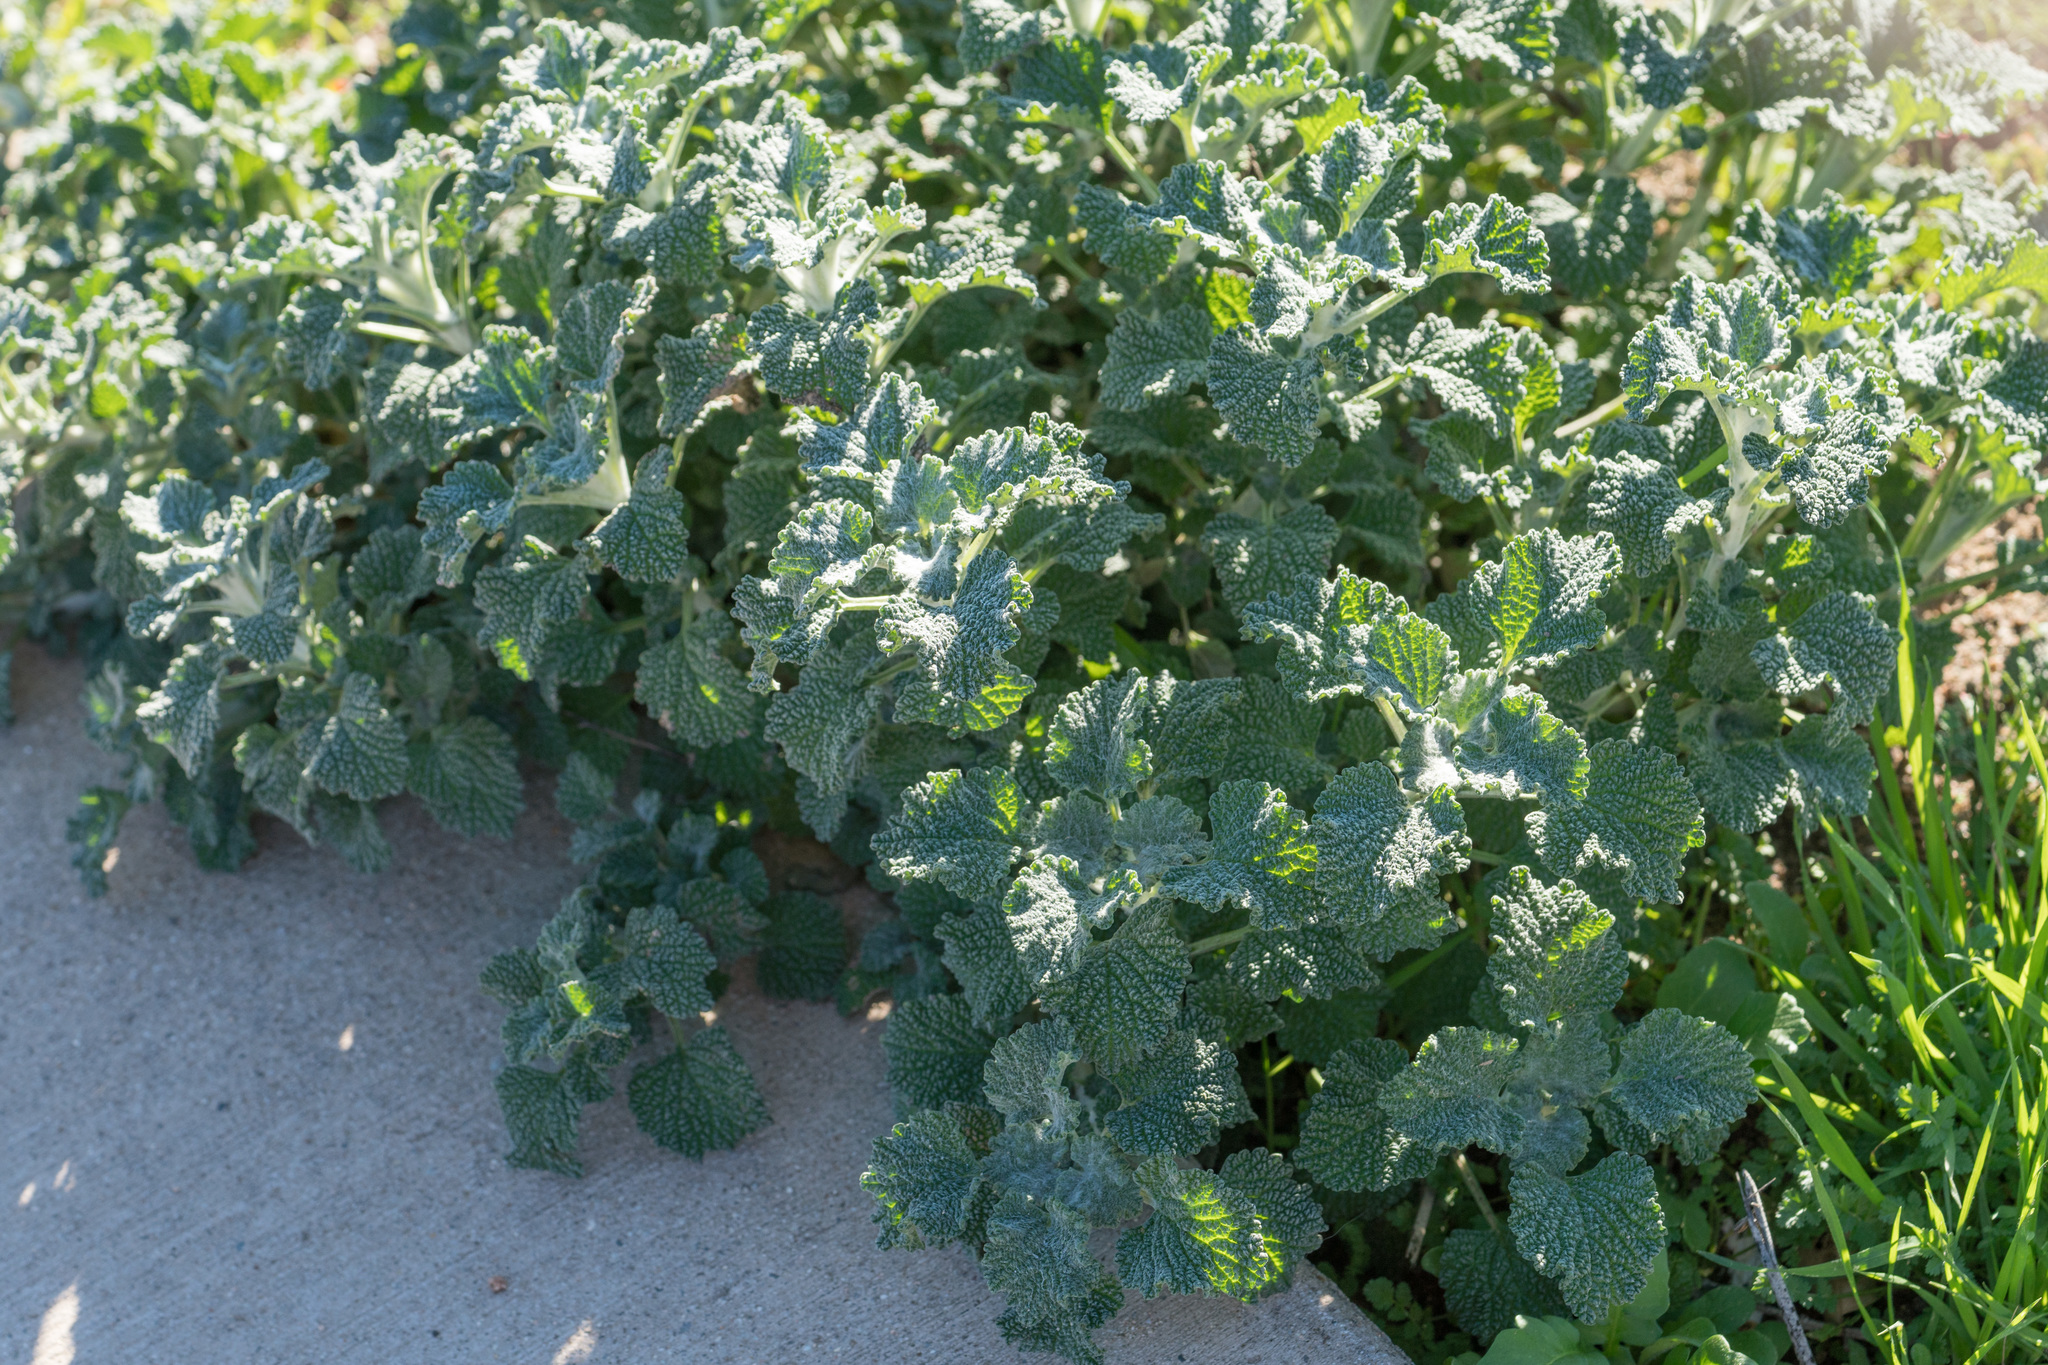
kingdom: Plantae
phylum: Tracheophyta
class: Magnoliopsida
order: Lamiales
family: Lamiaceae
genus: Marrubium
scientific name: Marrubium vulgare
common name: Horehound
